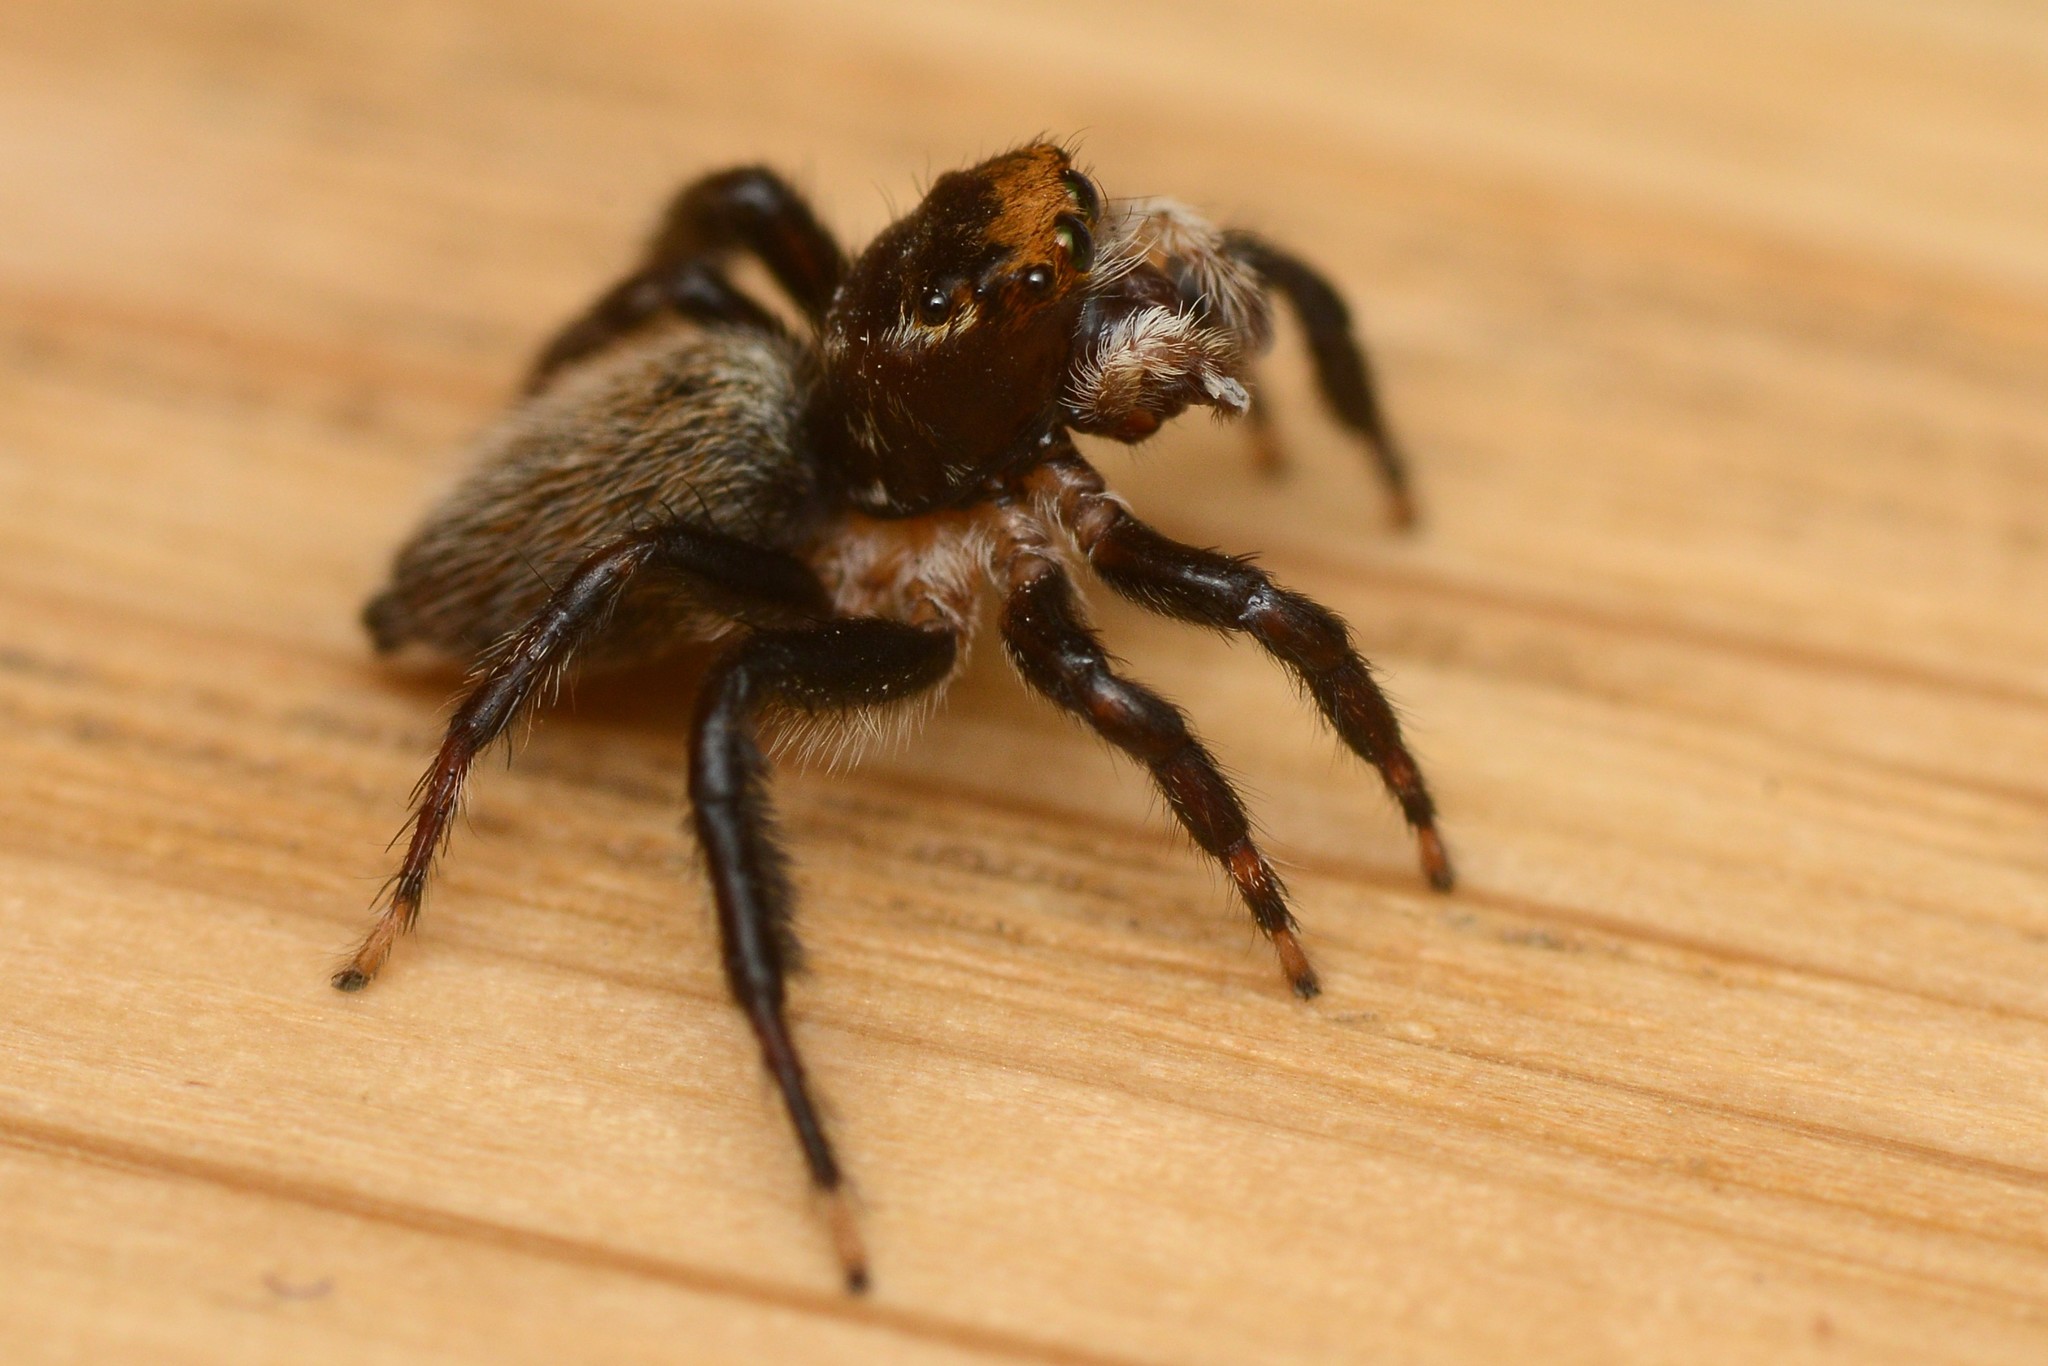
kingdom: Animalia
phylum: Arthropoda
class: Arachnida
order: Araneae
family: Salticidae
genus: Maratus
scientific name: Maratus griseus
